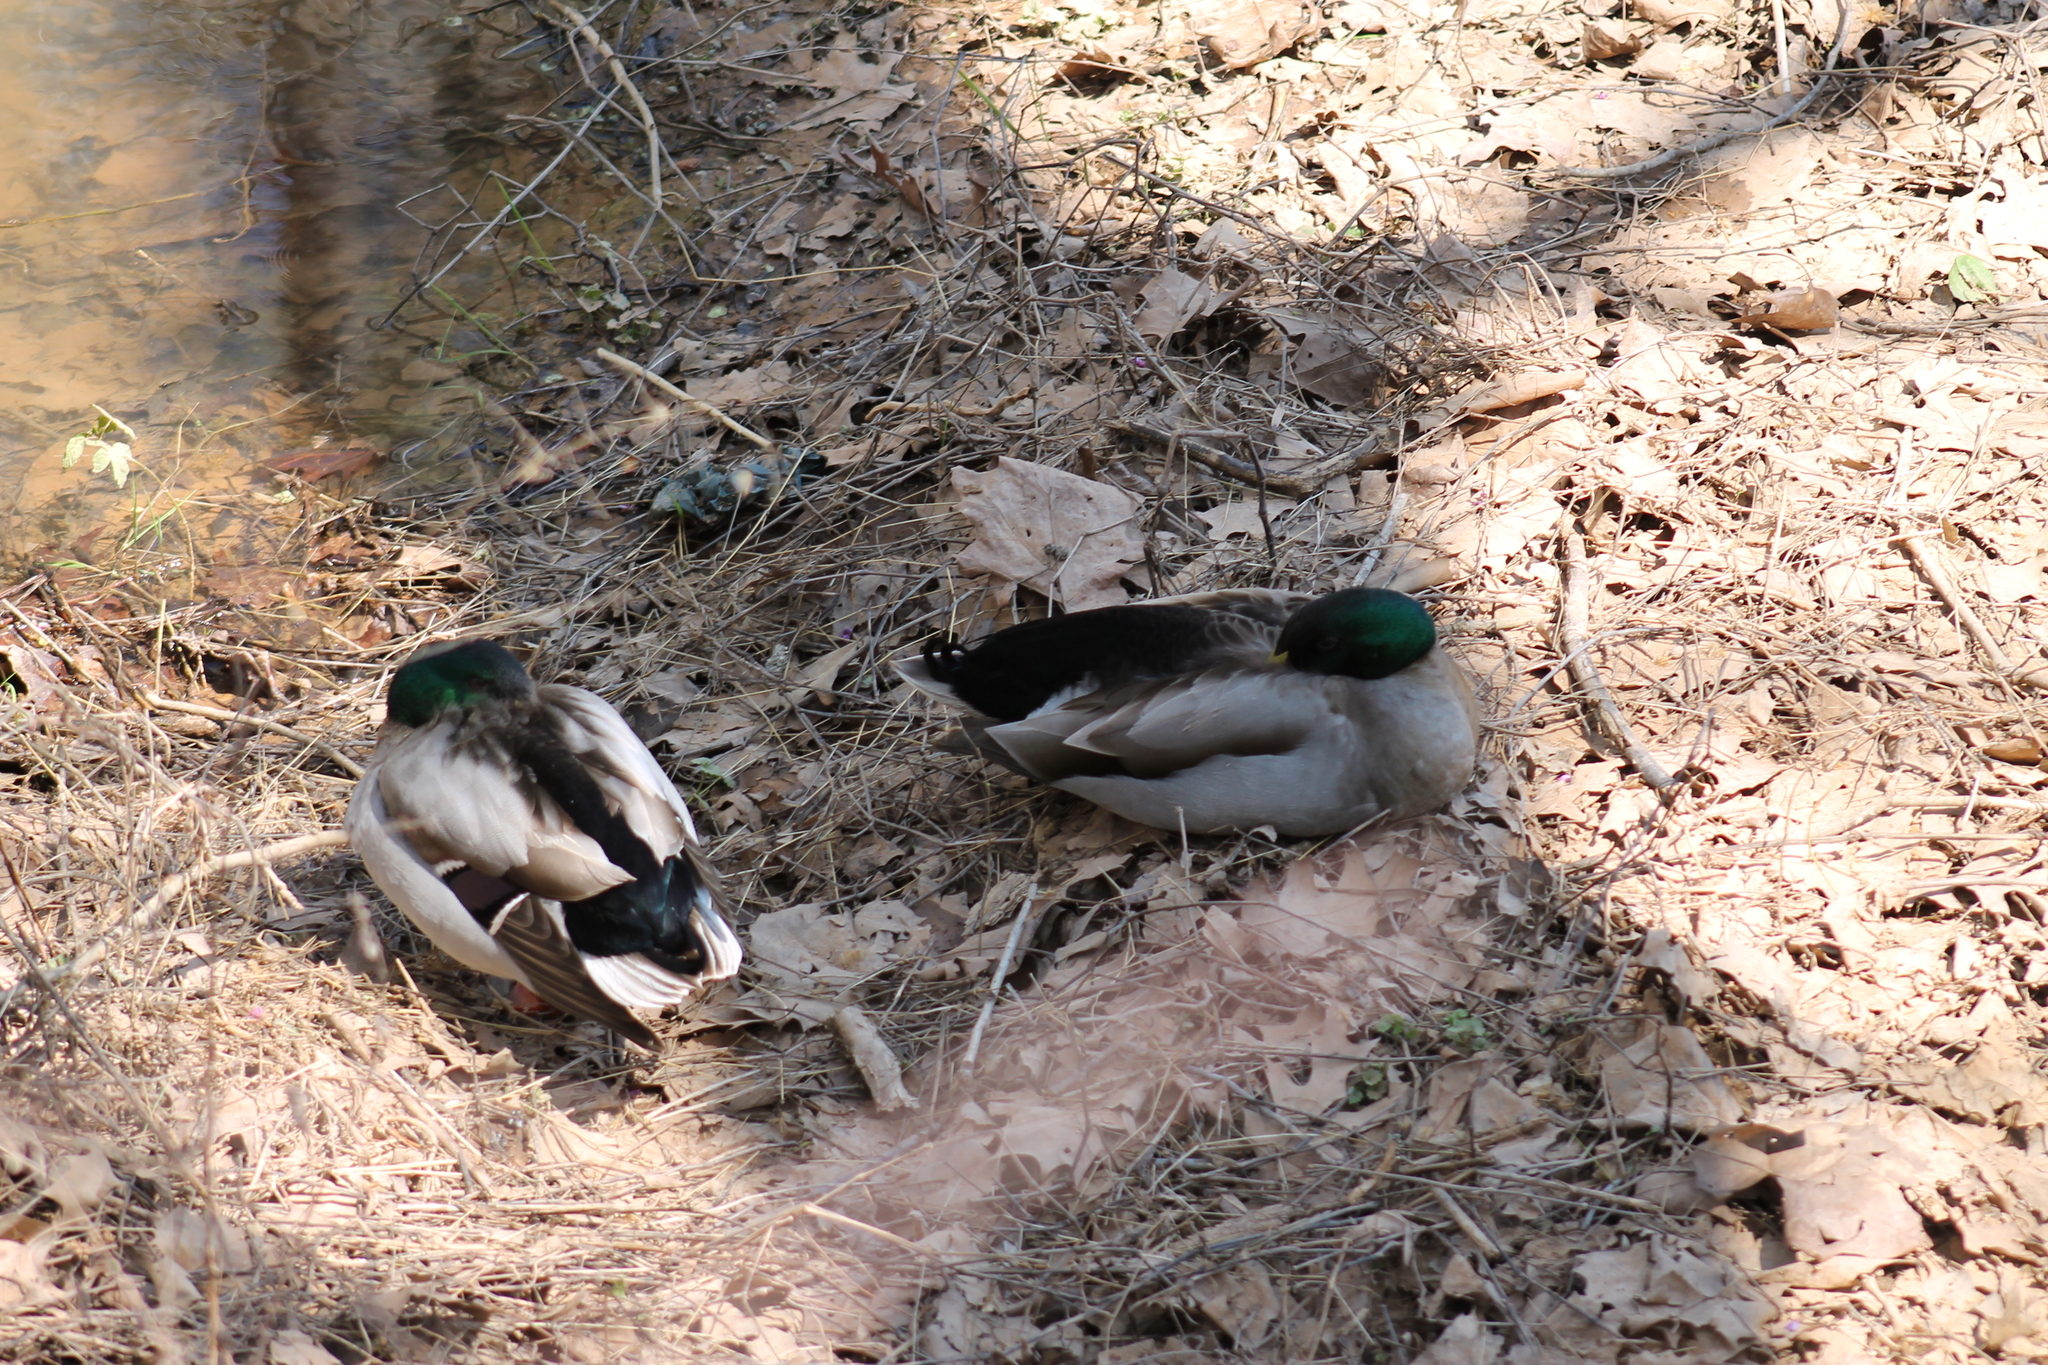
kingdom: Animalia
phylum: Chordata
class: Aves
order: Anseriformes
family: Anatidae
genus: Anas
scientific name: Anas platyrhynchos
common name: Mallard
